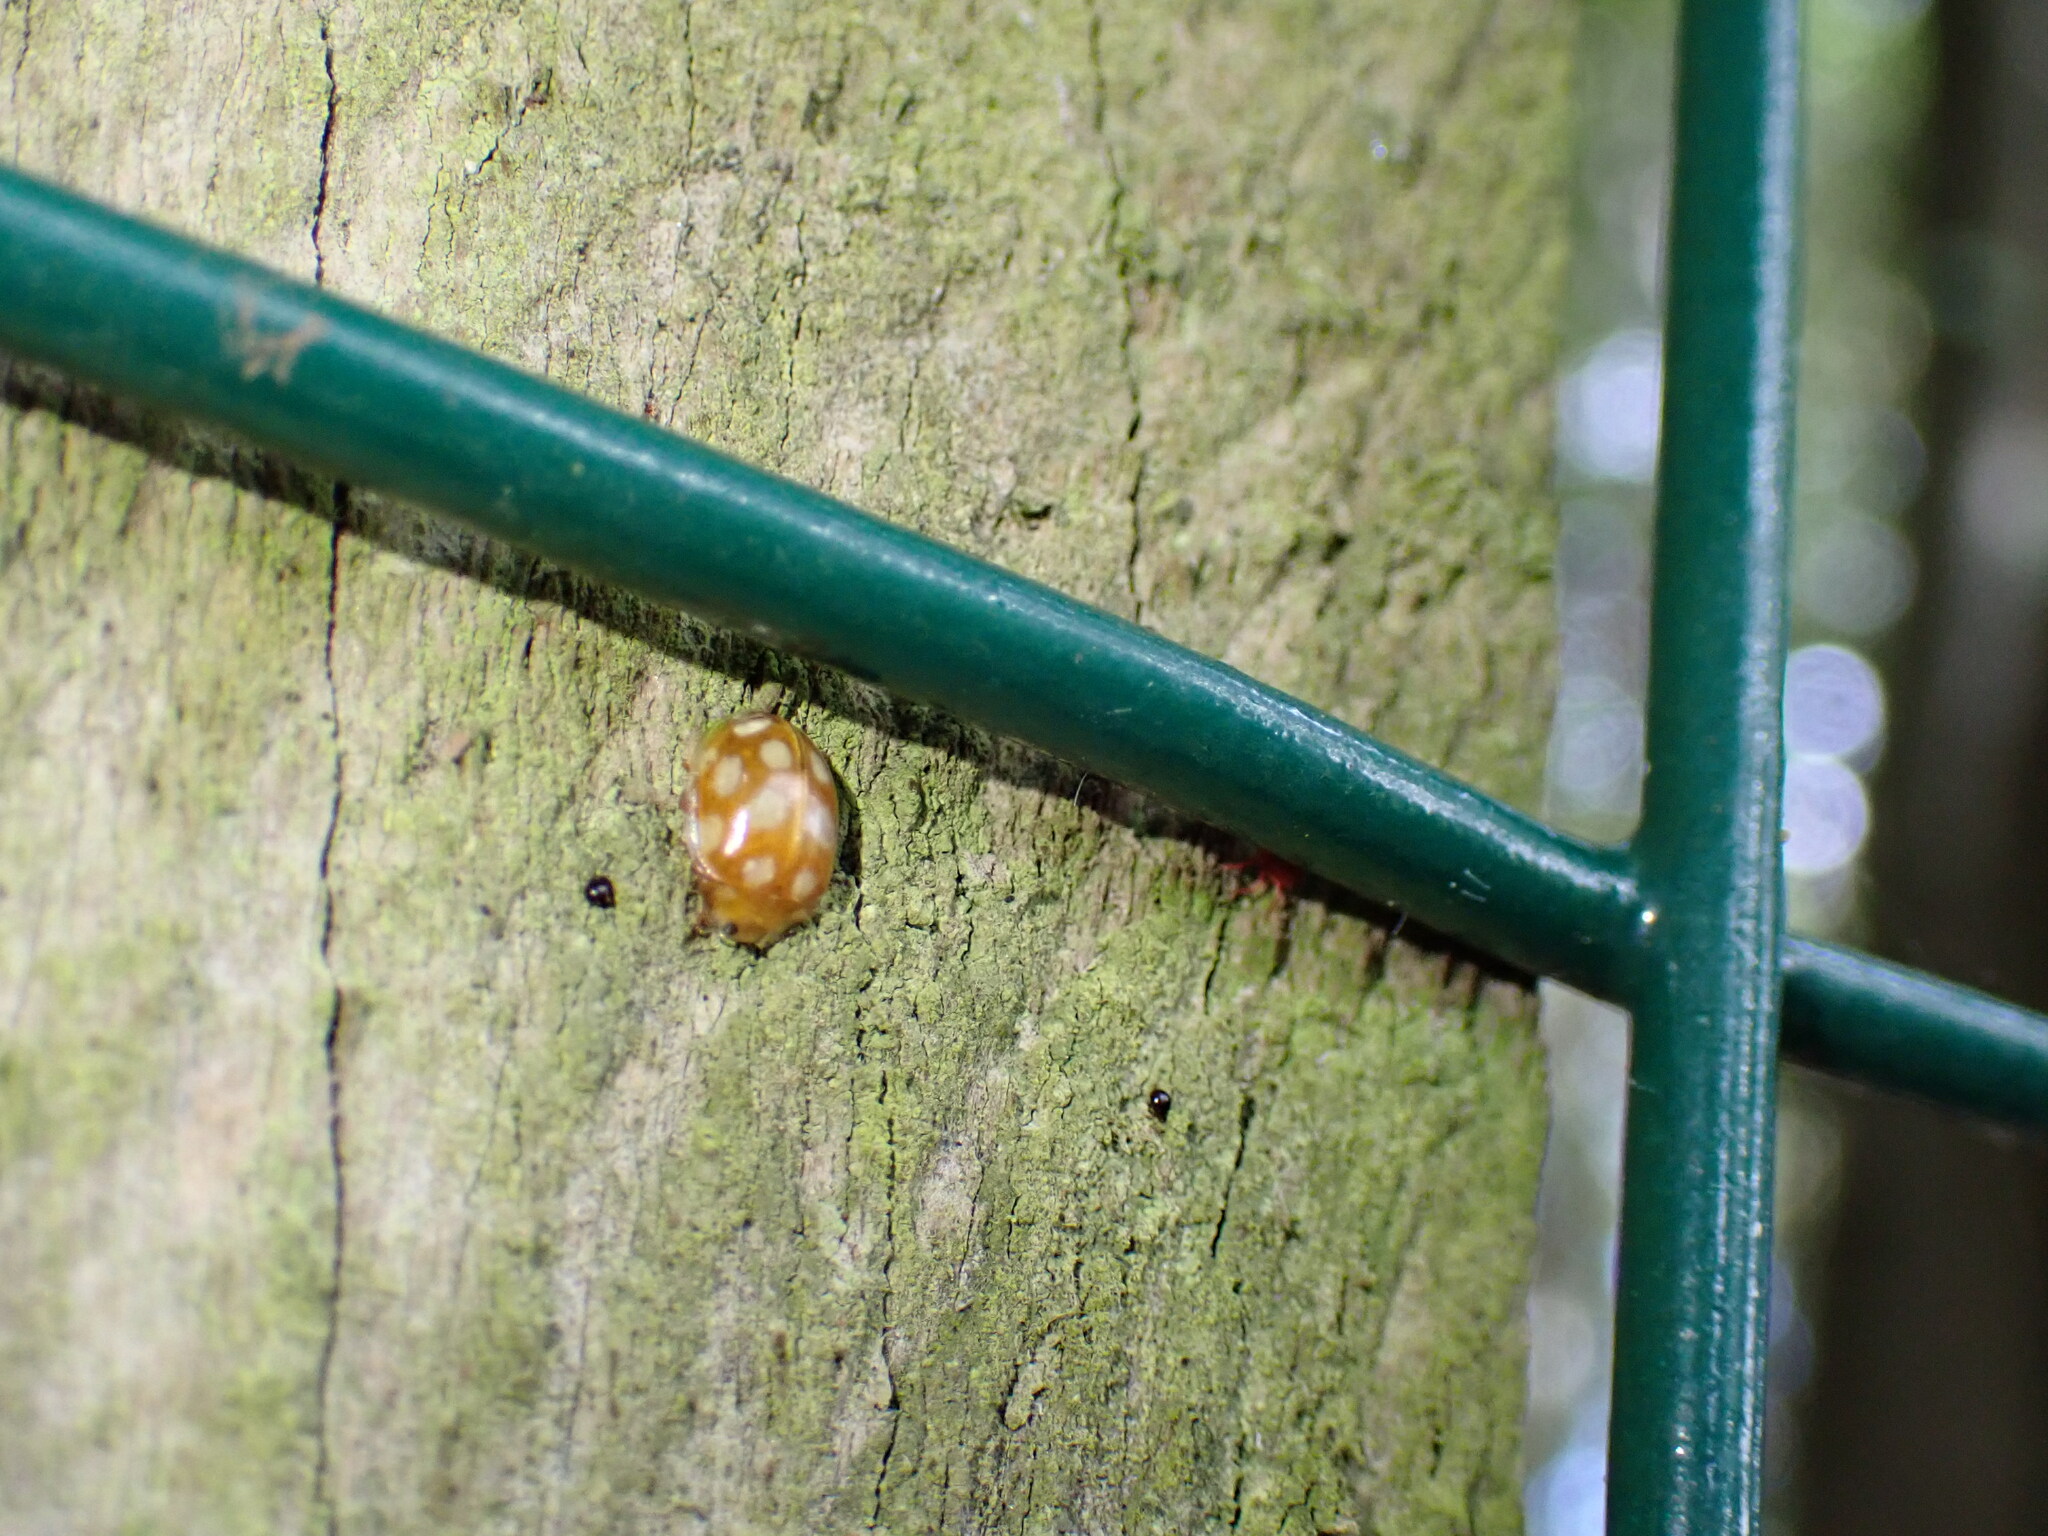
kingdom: Animalia
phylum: Arthropoda
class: Insecta
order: Coleoptera
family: Coccinellidae
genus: Halyzia
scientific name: Halyzia sedecimguttata
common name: Orange ladybird
